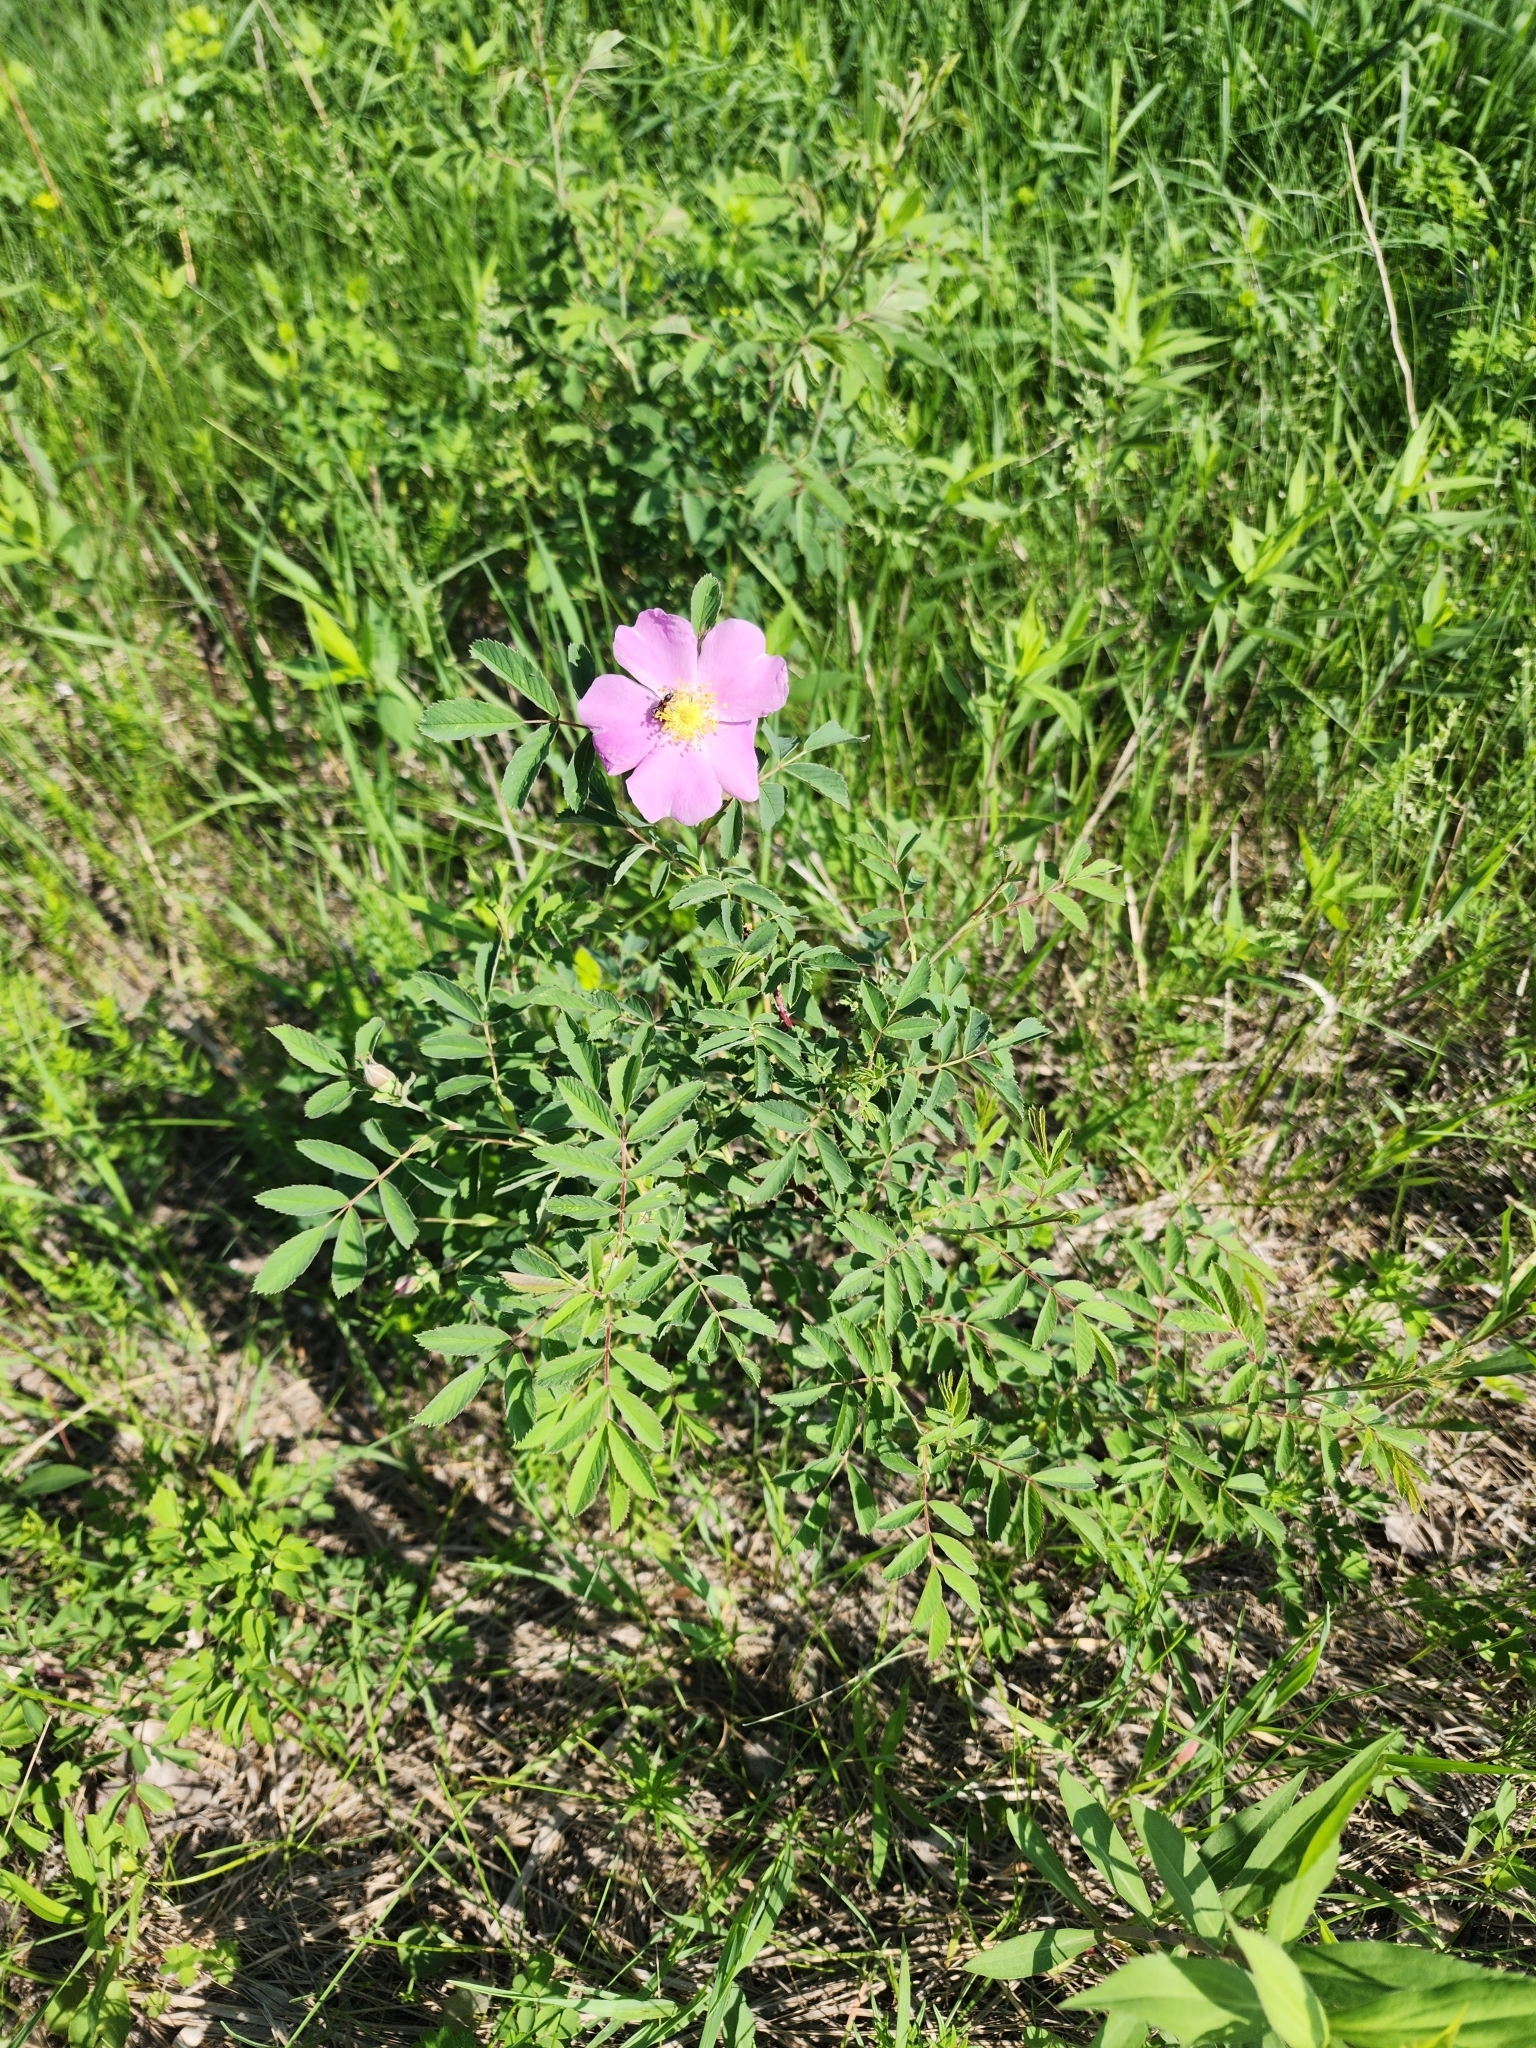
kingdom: Plantae
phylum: Tracheophyta
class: Magnoliopsida
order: Rosales
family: Rosaceae
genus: Rosa
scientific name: Rosa arkansana
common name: Prairie rose
